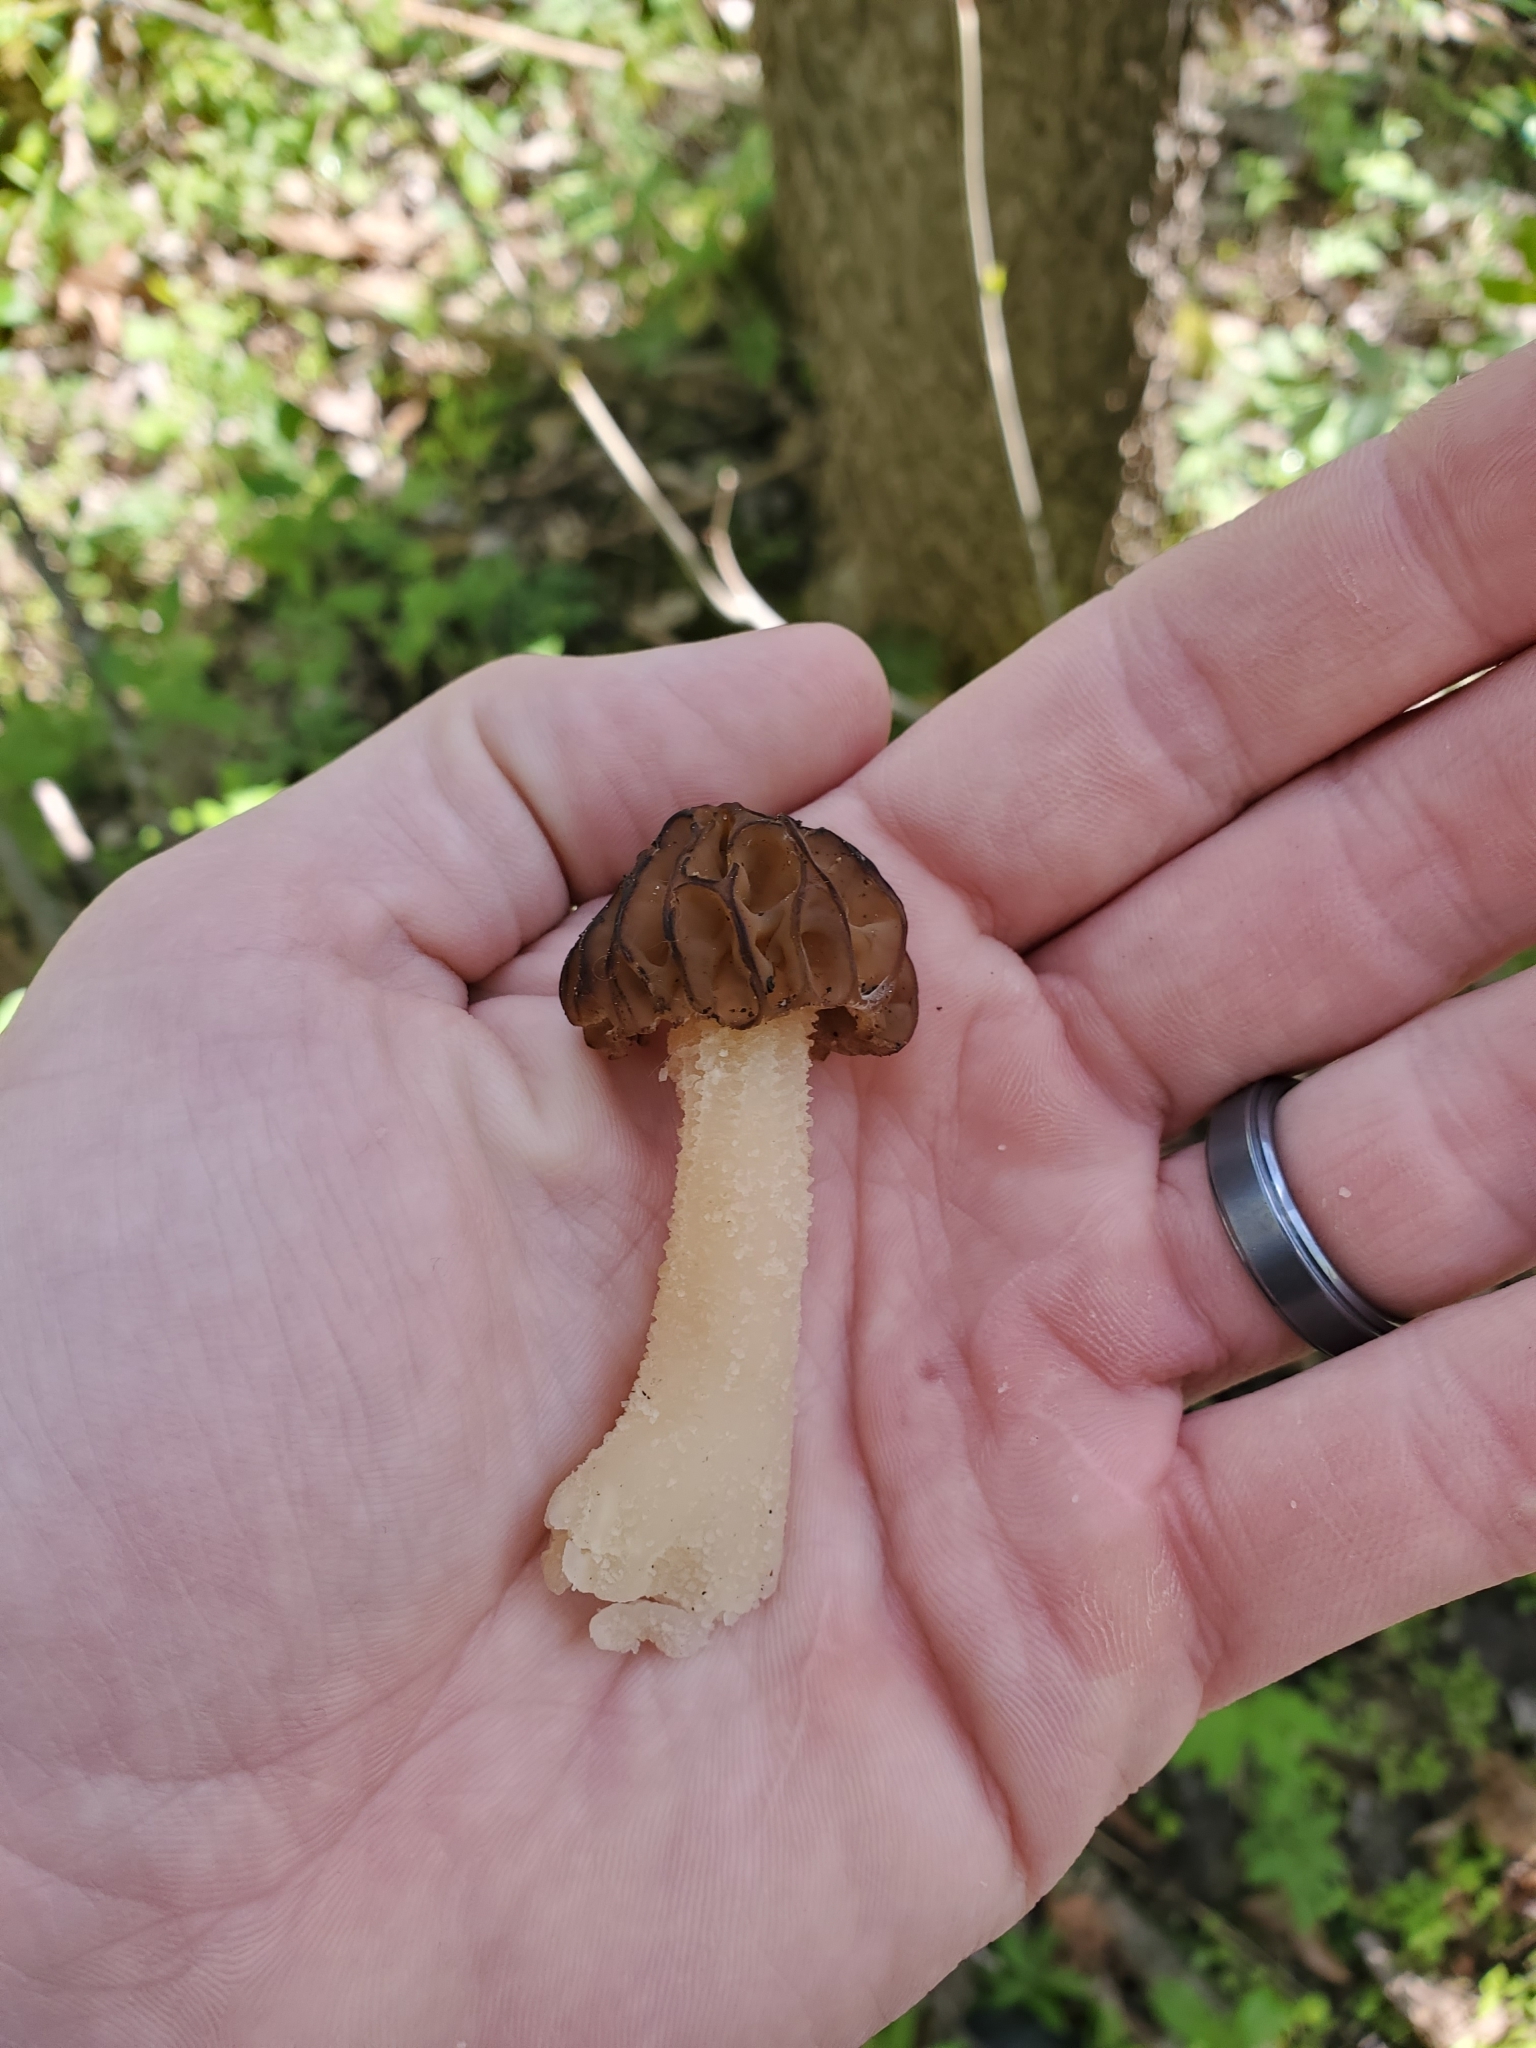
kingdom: Fungi
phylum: Ascomycota
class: Pezizomycetes
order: Pezizales
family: Morchellaceae
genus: Morchella
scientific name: Morchella punctipes
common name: Half-free morel
